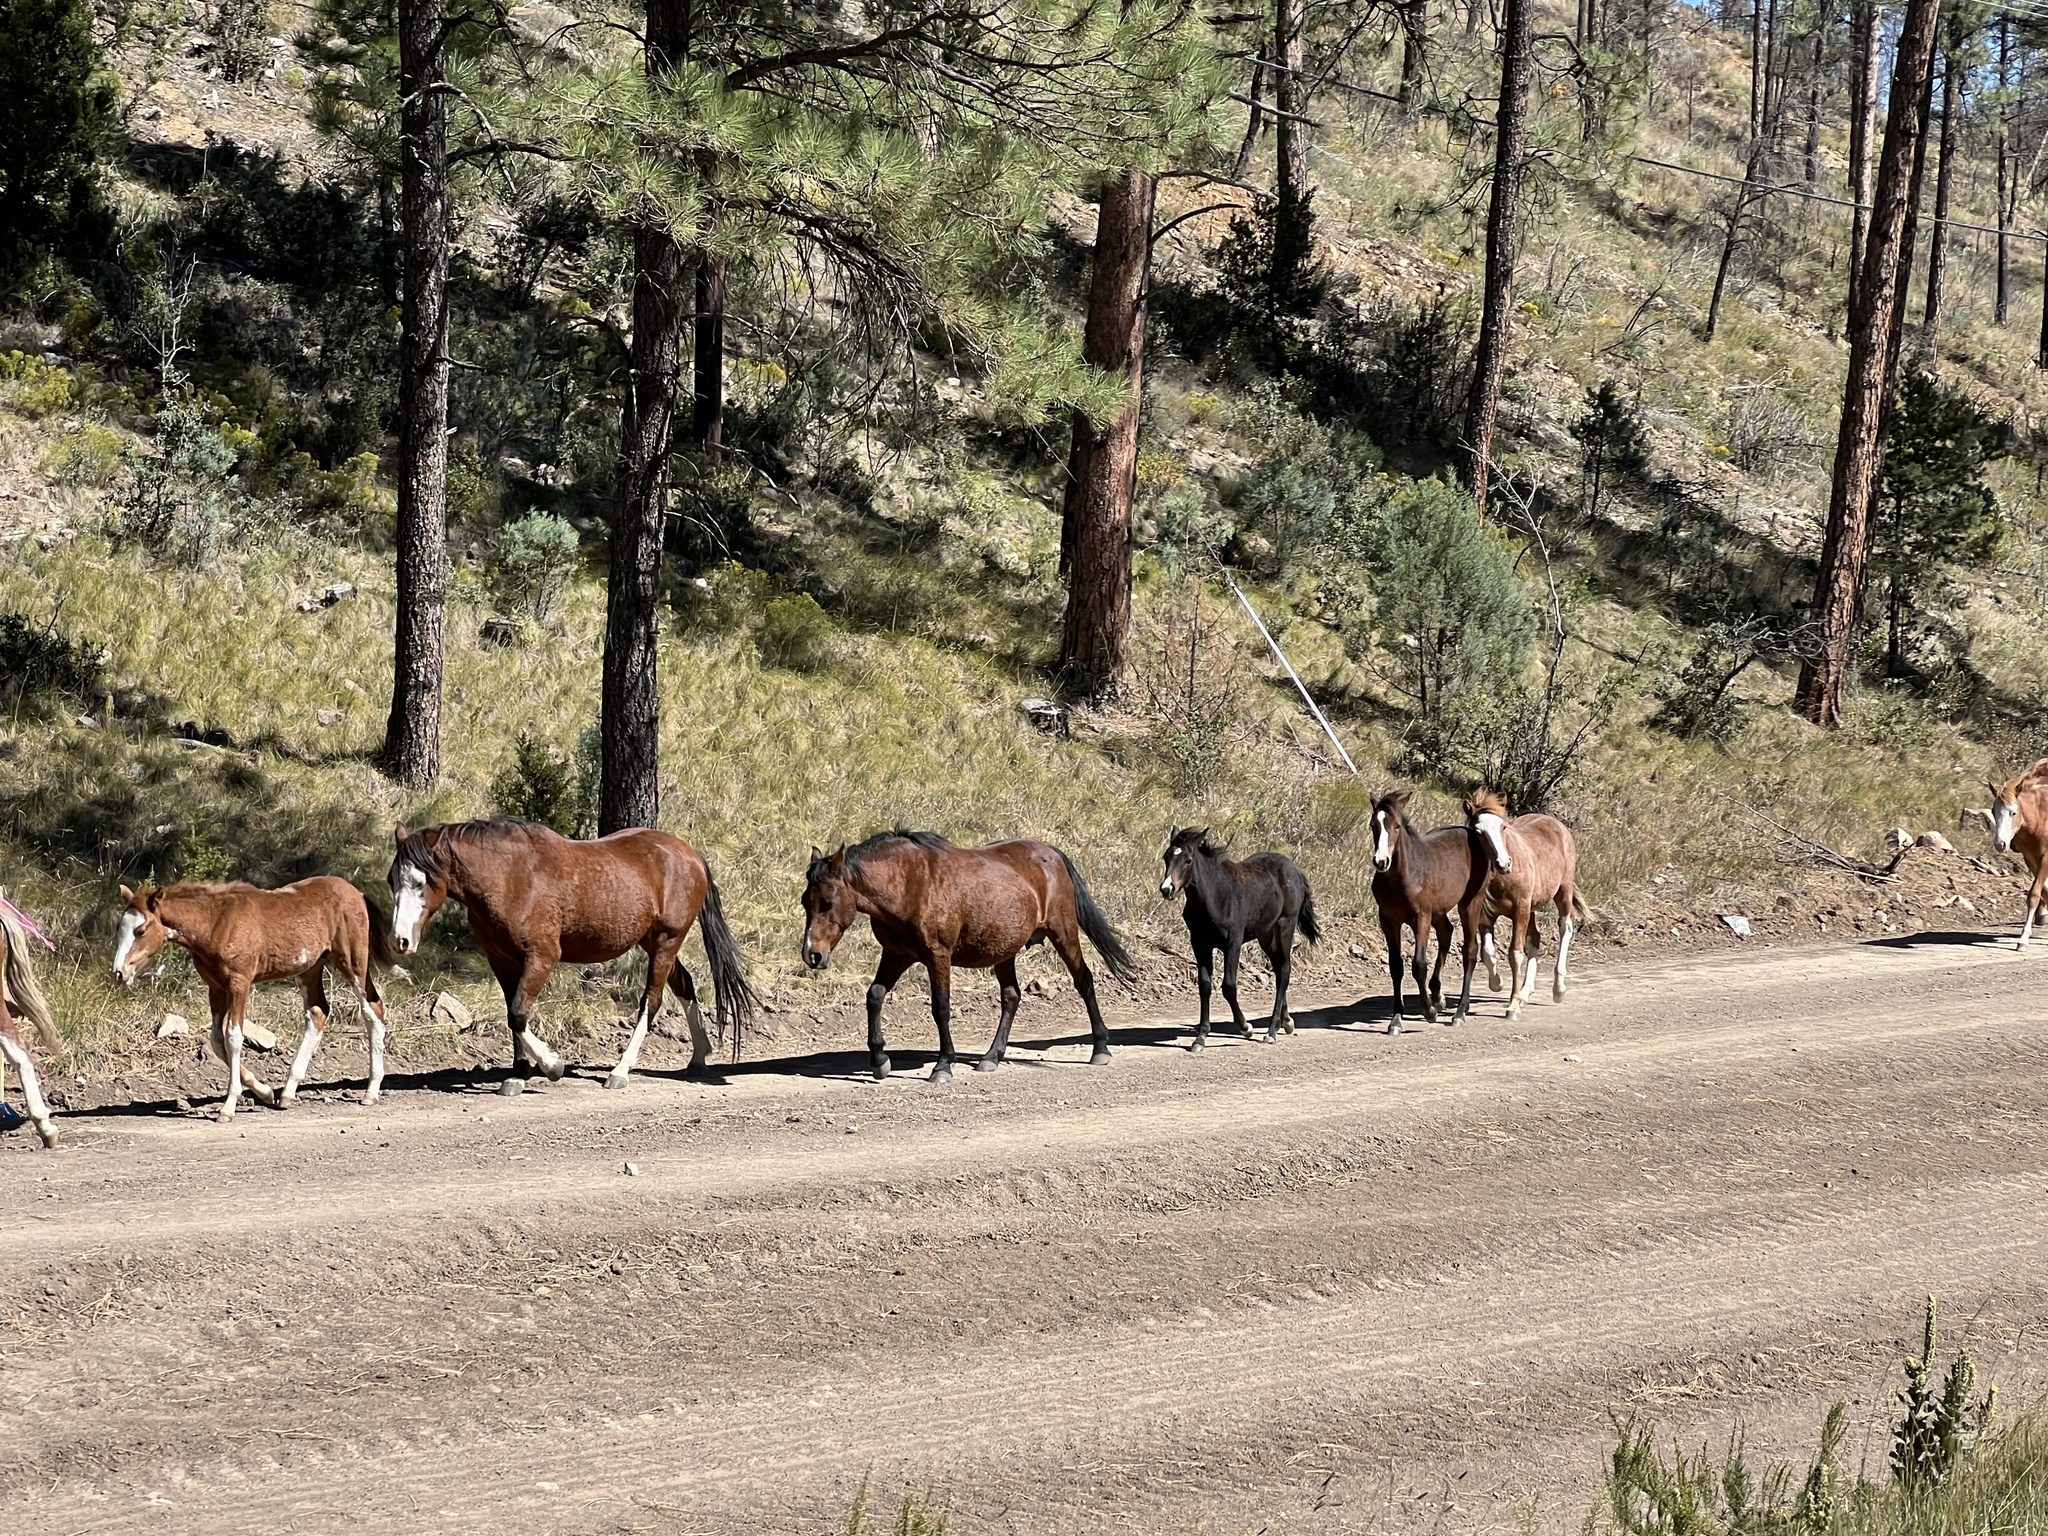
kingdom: Animalia
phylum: Chordata
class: Mammalia
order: Perissodactyla
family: Equidae
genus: Equus
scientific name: Equus caballus
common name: Horse
